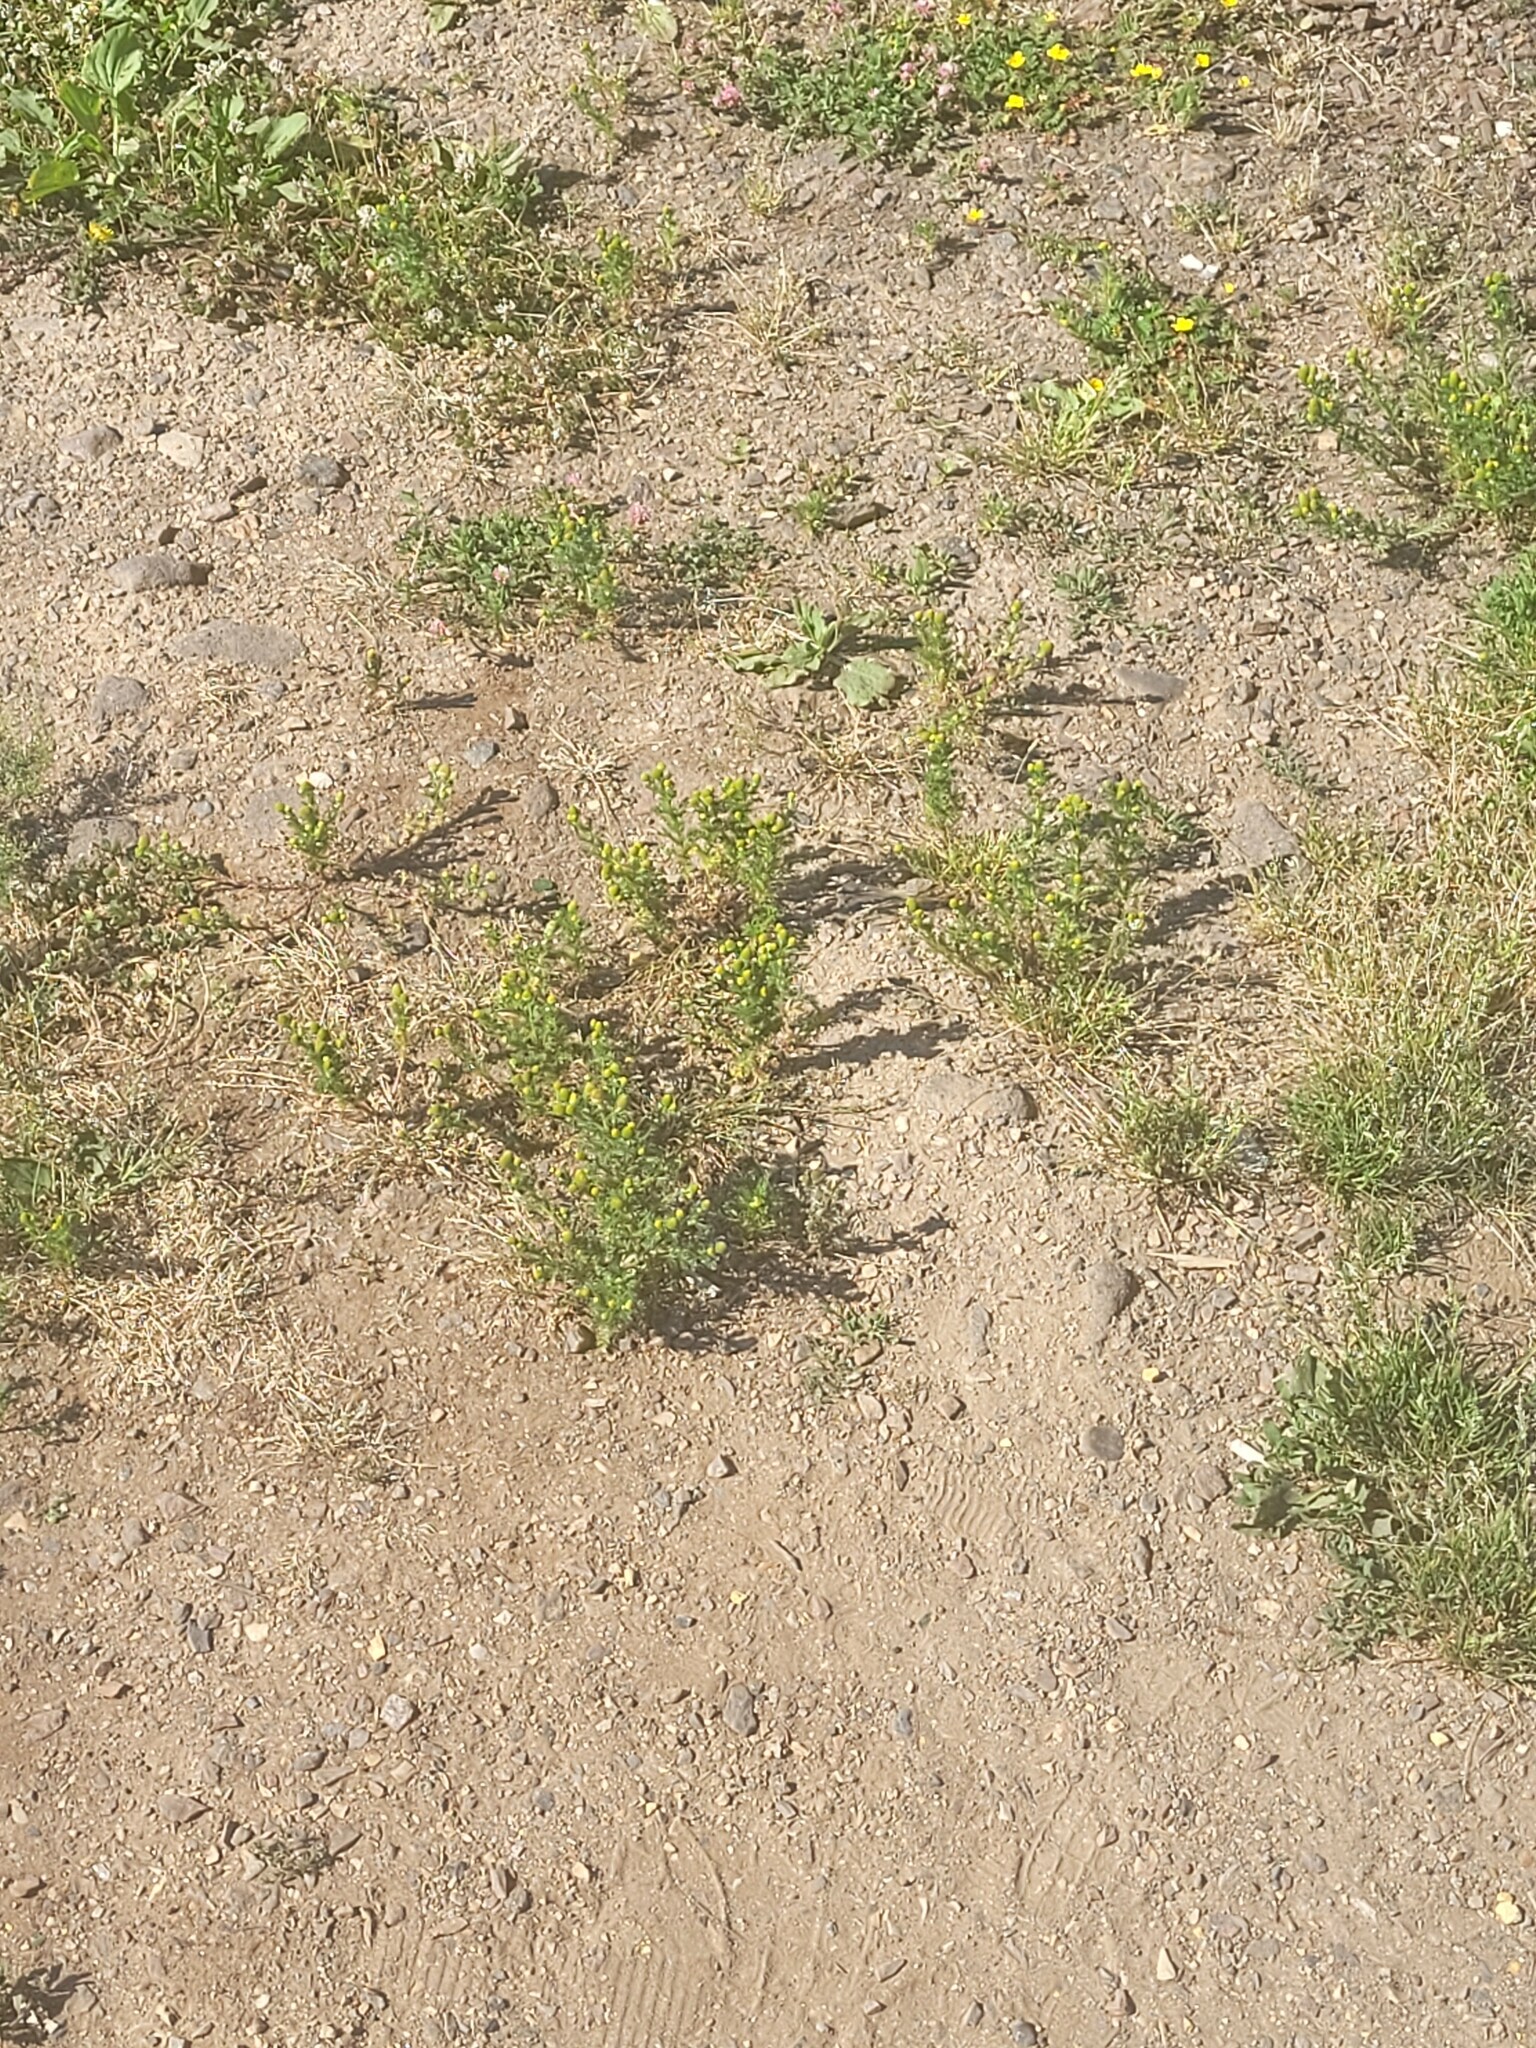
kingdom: Plantae
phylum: Tracheophyta
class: Magnoliopsida
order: Asterales
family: Asteraceae
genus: Matricaria
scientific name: Matricaria discoidea
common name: Disc mayweed
